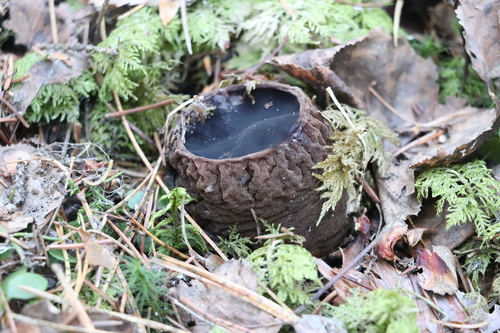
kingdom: Fungi
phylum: Ascomycota
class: Pezizomycetes
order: Pezizales
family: Sarcosomataceae
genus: Sarcosoma
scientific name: Sarcosoma globosum
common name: Charred-pancake cup
